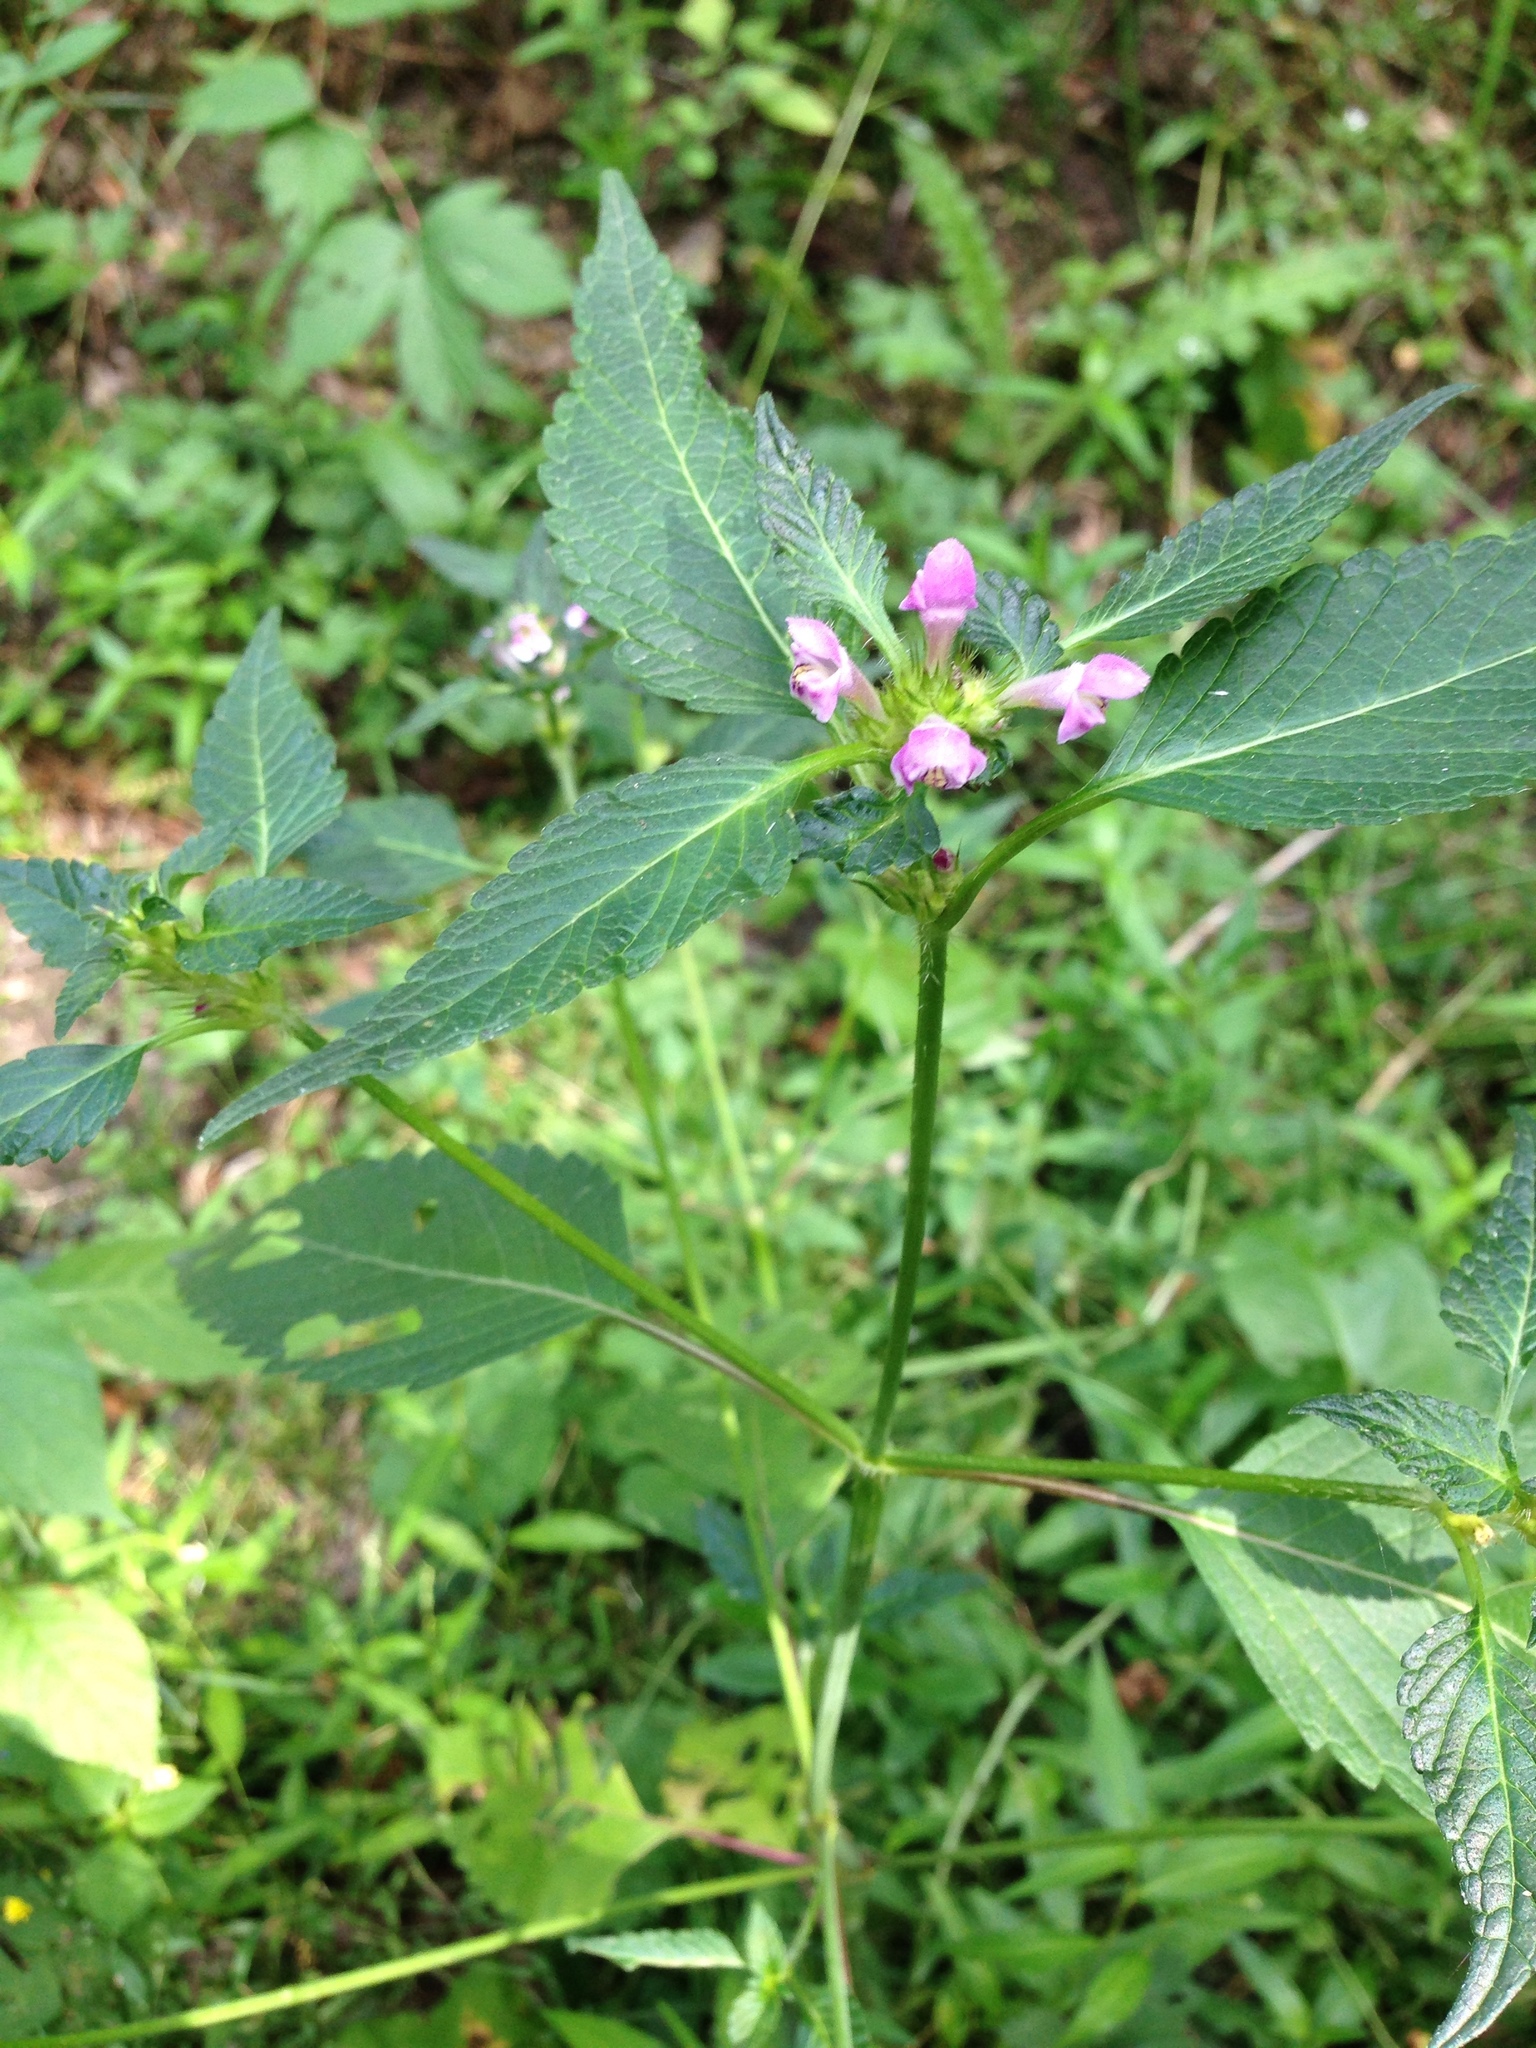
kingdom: Plantae
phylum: Tracheophyta
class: Magnoliopsida
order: Lamiales
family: Lamiaceae
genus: Galeopsis
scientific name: Galeopsis tetrahit
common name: Common hemp-nettle
